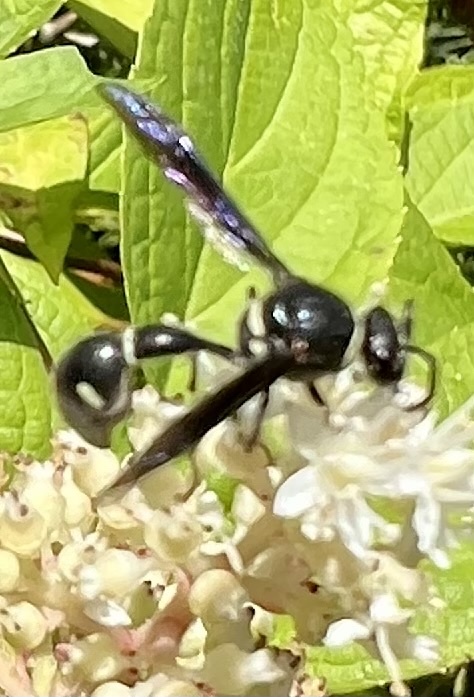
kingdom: Animalia
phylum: Arthropoda
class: Insecta
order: Hymenoptera
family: Vespidae
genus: Eumenes
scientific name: Eumenes fraternus
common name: Fraternal potter wasp
